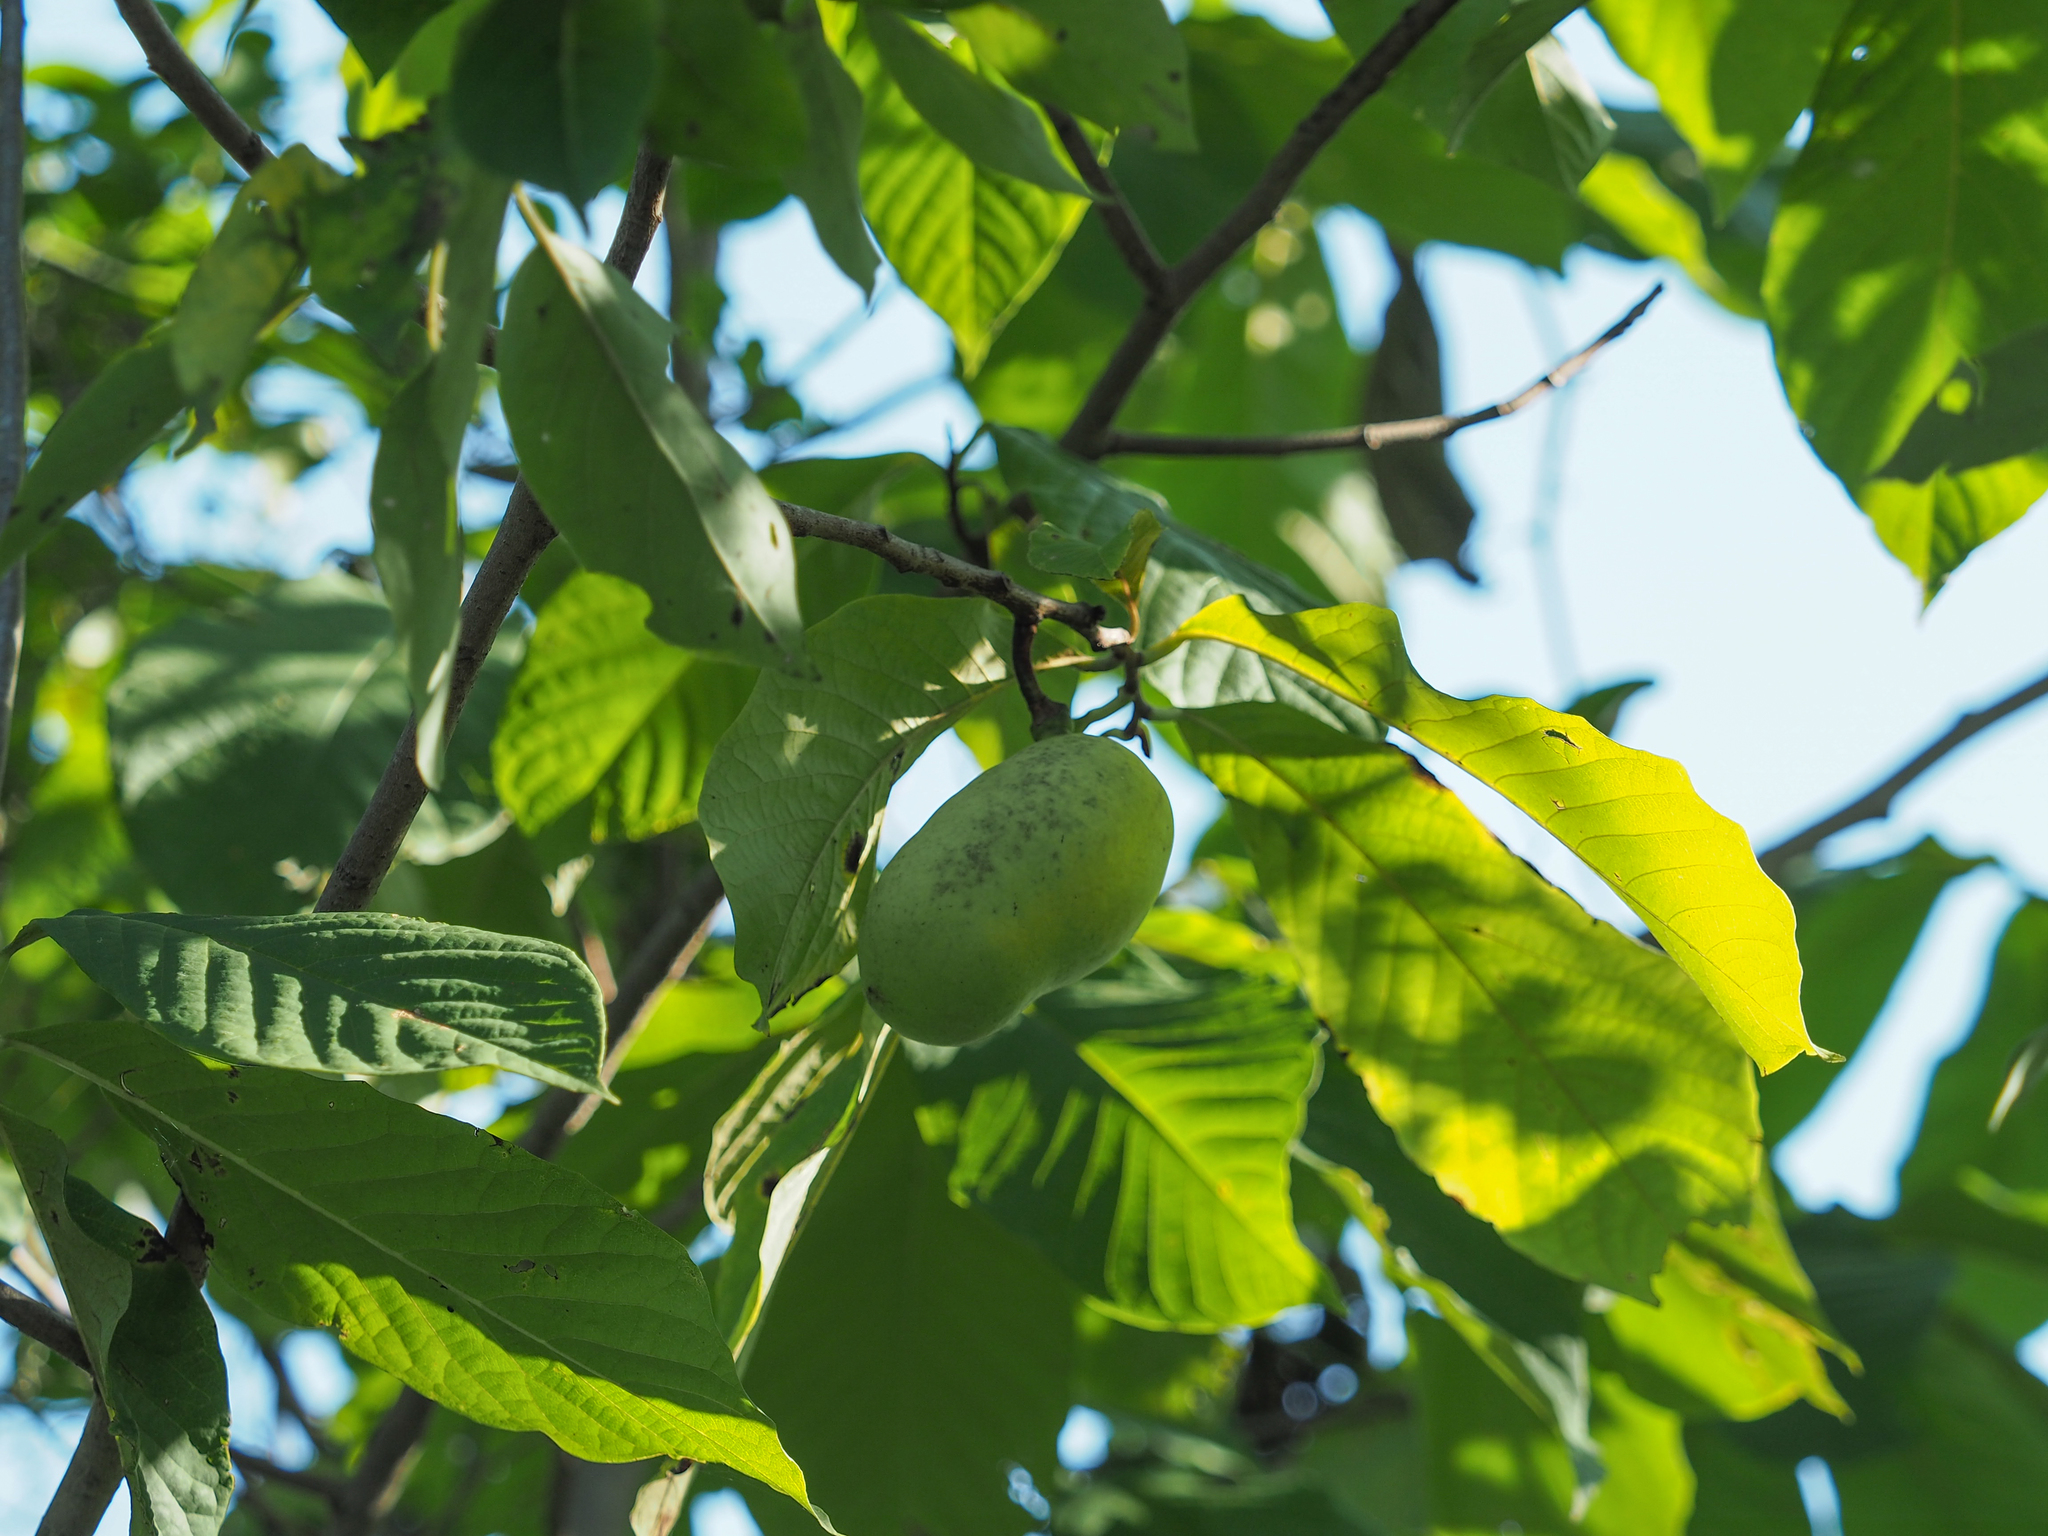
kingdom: Plantae
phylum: Tracheophyta
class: Magnoliopsida
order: Magnoliales
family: Annonaceae
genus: Asimina
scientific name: Asimina triloba
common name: Dog-banana
